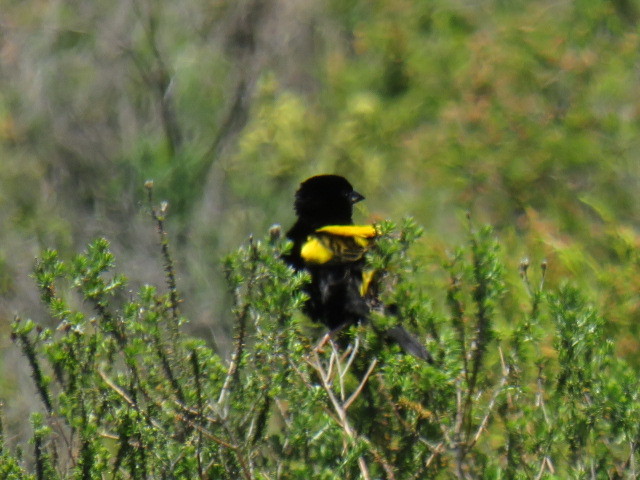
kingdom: Animalia
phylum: Chordata
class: Aves
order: Passeriformes
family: Ploceidae
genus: Euplectes
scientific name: Euplectes capensis
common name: Yellow bishop
